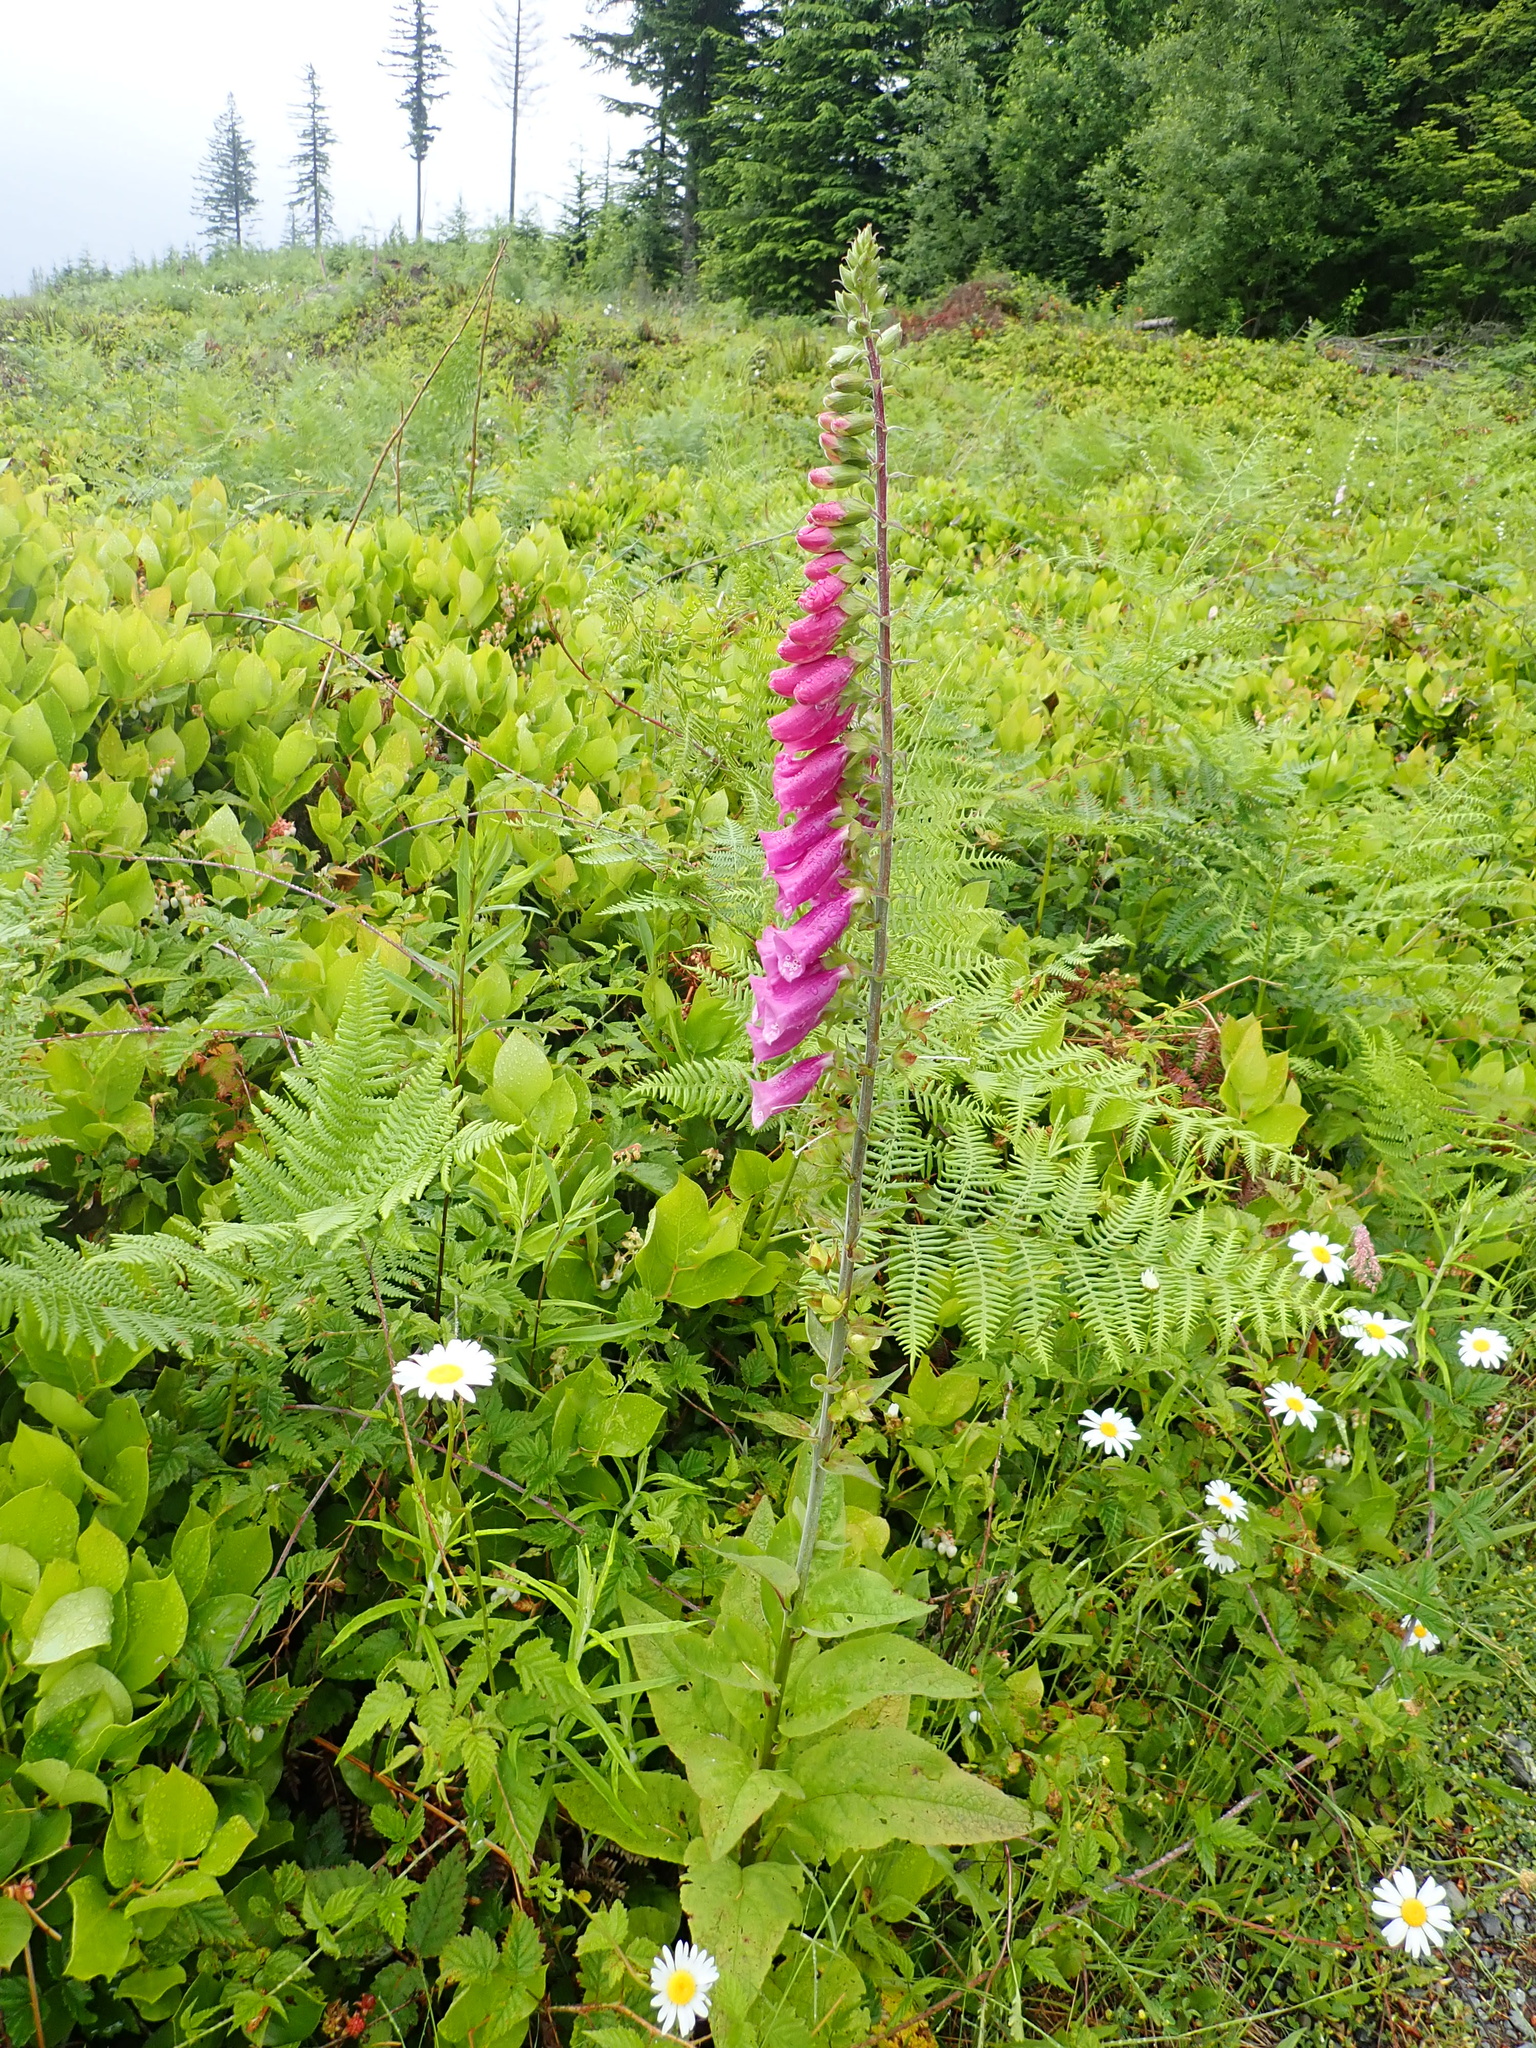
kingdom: Plantae
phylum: Tracheophyta
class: Magnoliopsida
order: Lamiales
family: Plantaginaceae
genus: Digitalis
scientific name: Digitalis purpurea
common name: Foxglove
